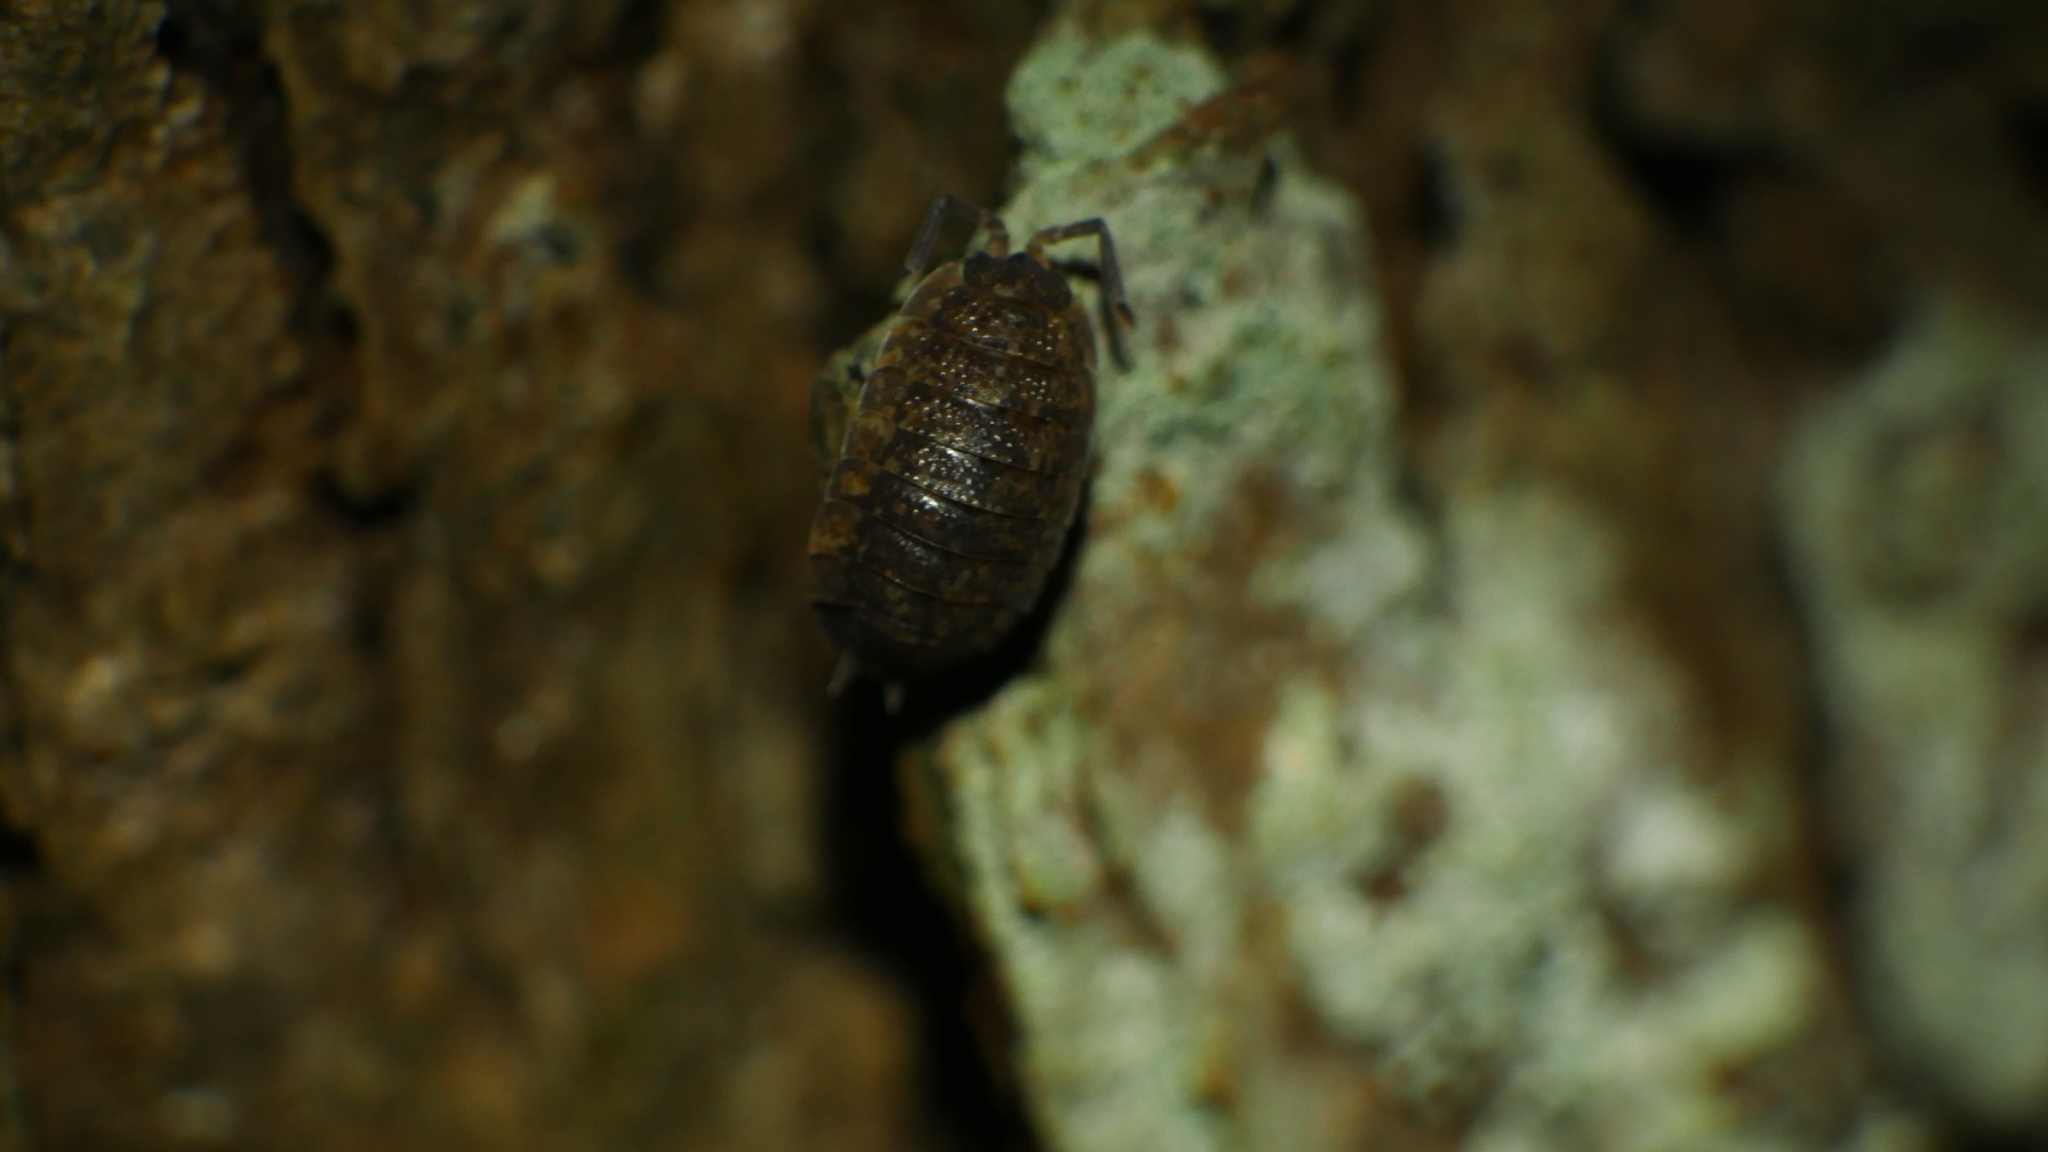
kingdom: Animalia
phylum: Arthropoda
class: Malacostraca
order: Isopoda
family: Porcellionidae
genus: Porcellio
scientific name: Porcellio scaber
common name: Common rough woodlouse
